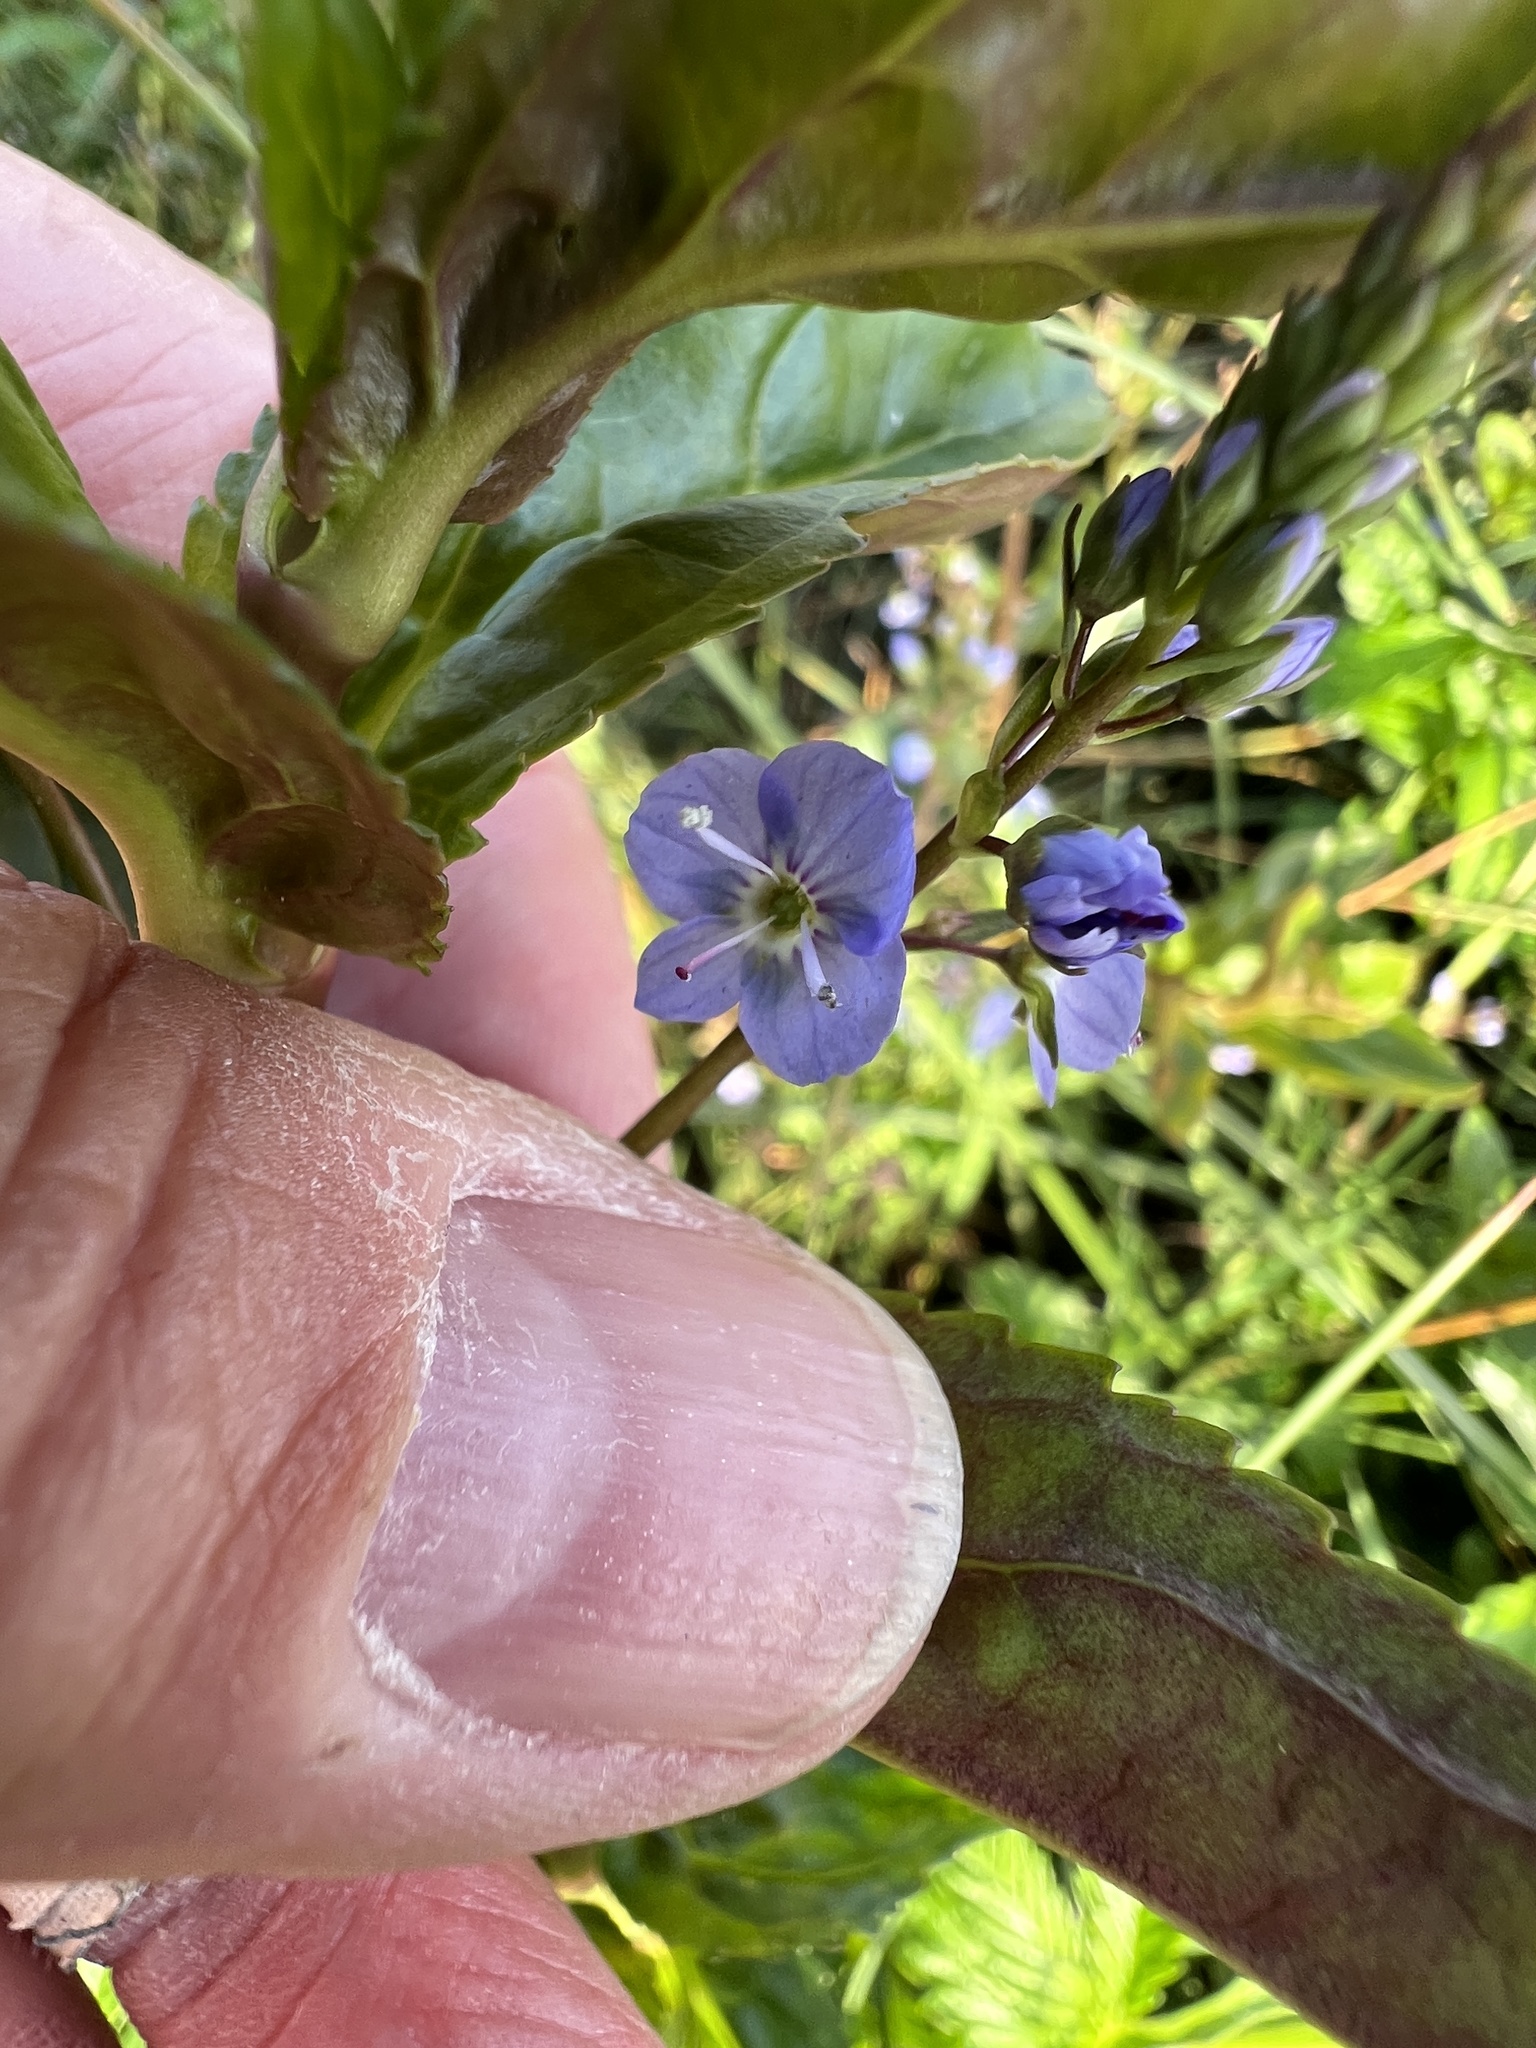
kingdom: Plantae
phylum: Tracheophyta
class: Magnoliopsida
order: Lamiales
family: Plantaginaceae
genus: Veronica
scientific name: Veronica americana
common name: American brooklime
